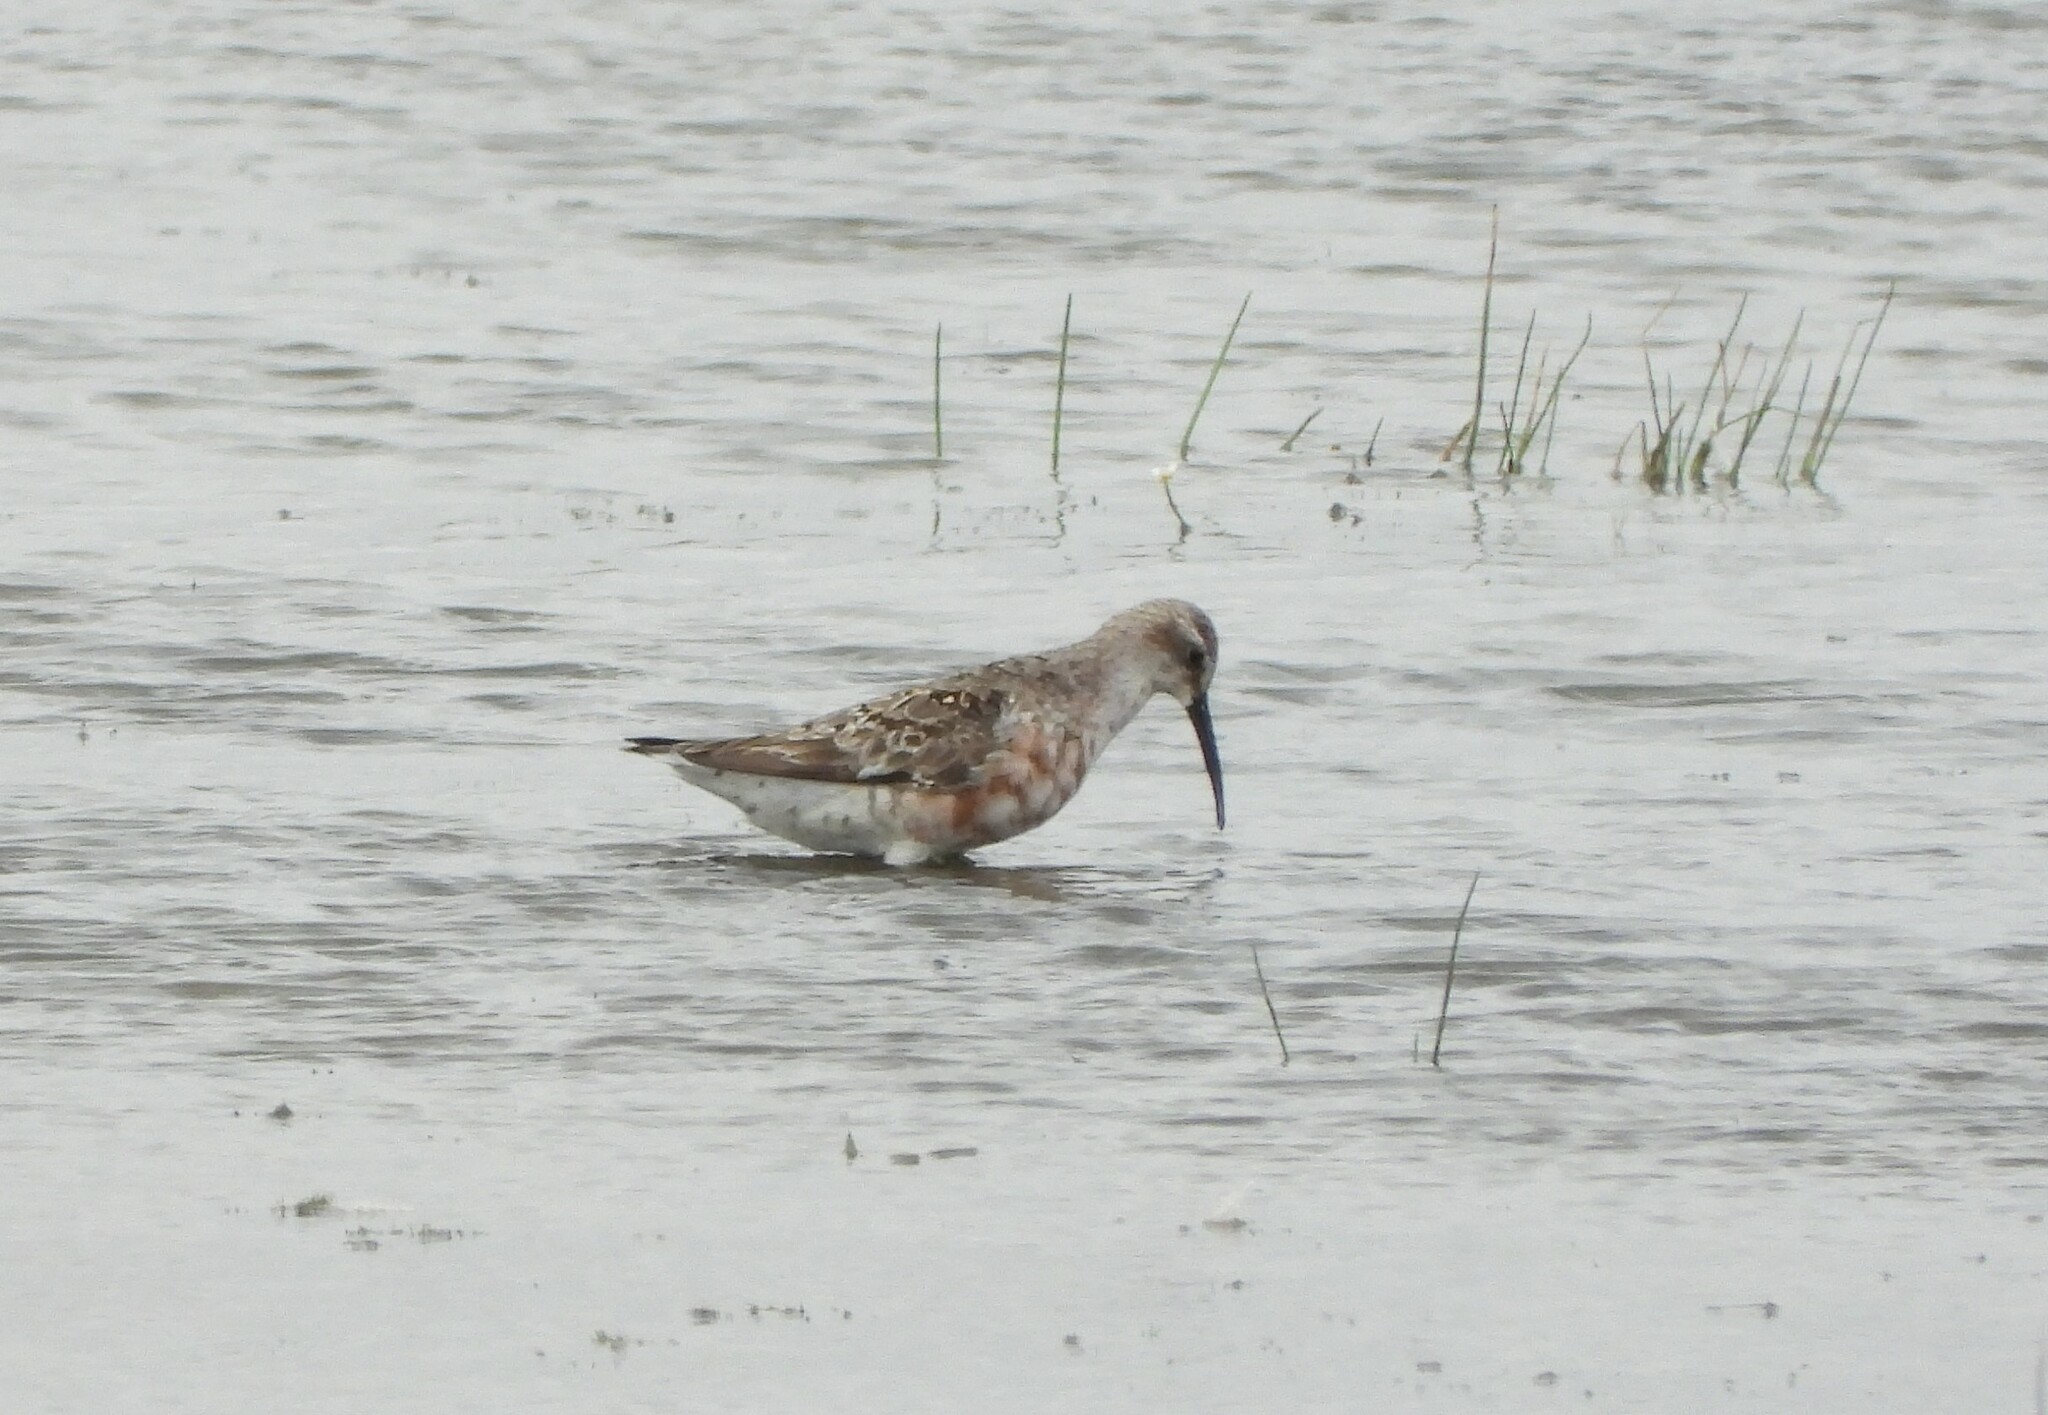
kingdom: Animalia
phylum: Chordata
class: Aves
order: Charadriiformes
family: Scolopacidae
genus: Calidris
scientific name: Calidris ferruginea
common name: Curlew sandpiper
